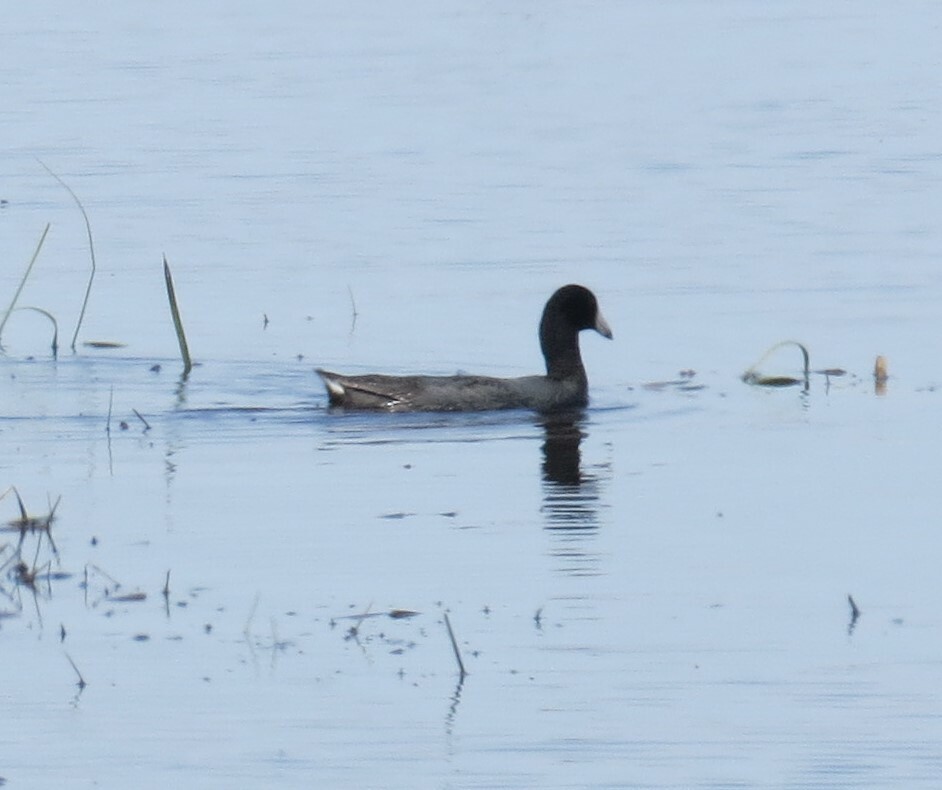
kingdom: Animalia
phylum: Chordata
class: Aves
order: Gruiformes
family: Rallidae
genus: Fulica
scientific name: Fulica americana
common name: American coot
